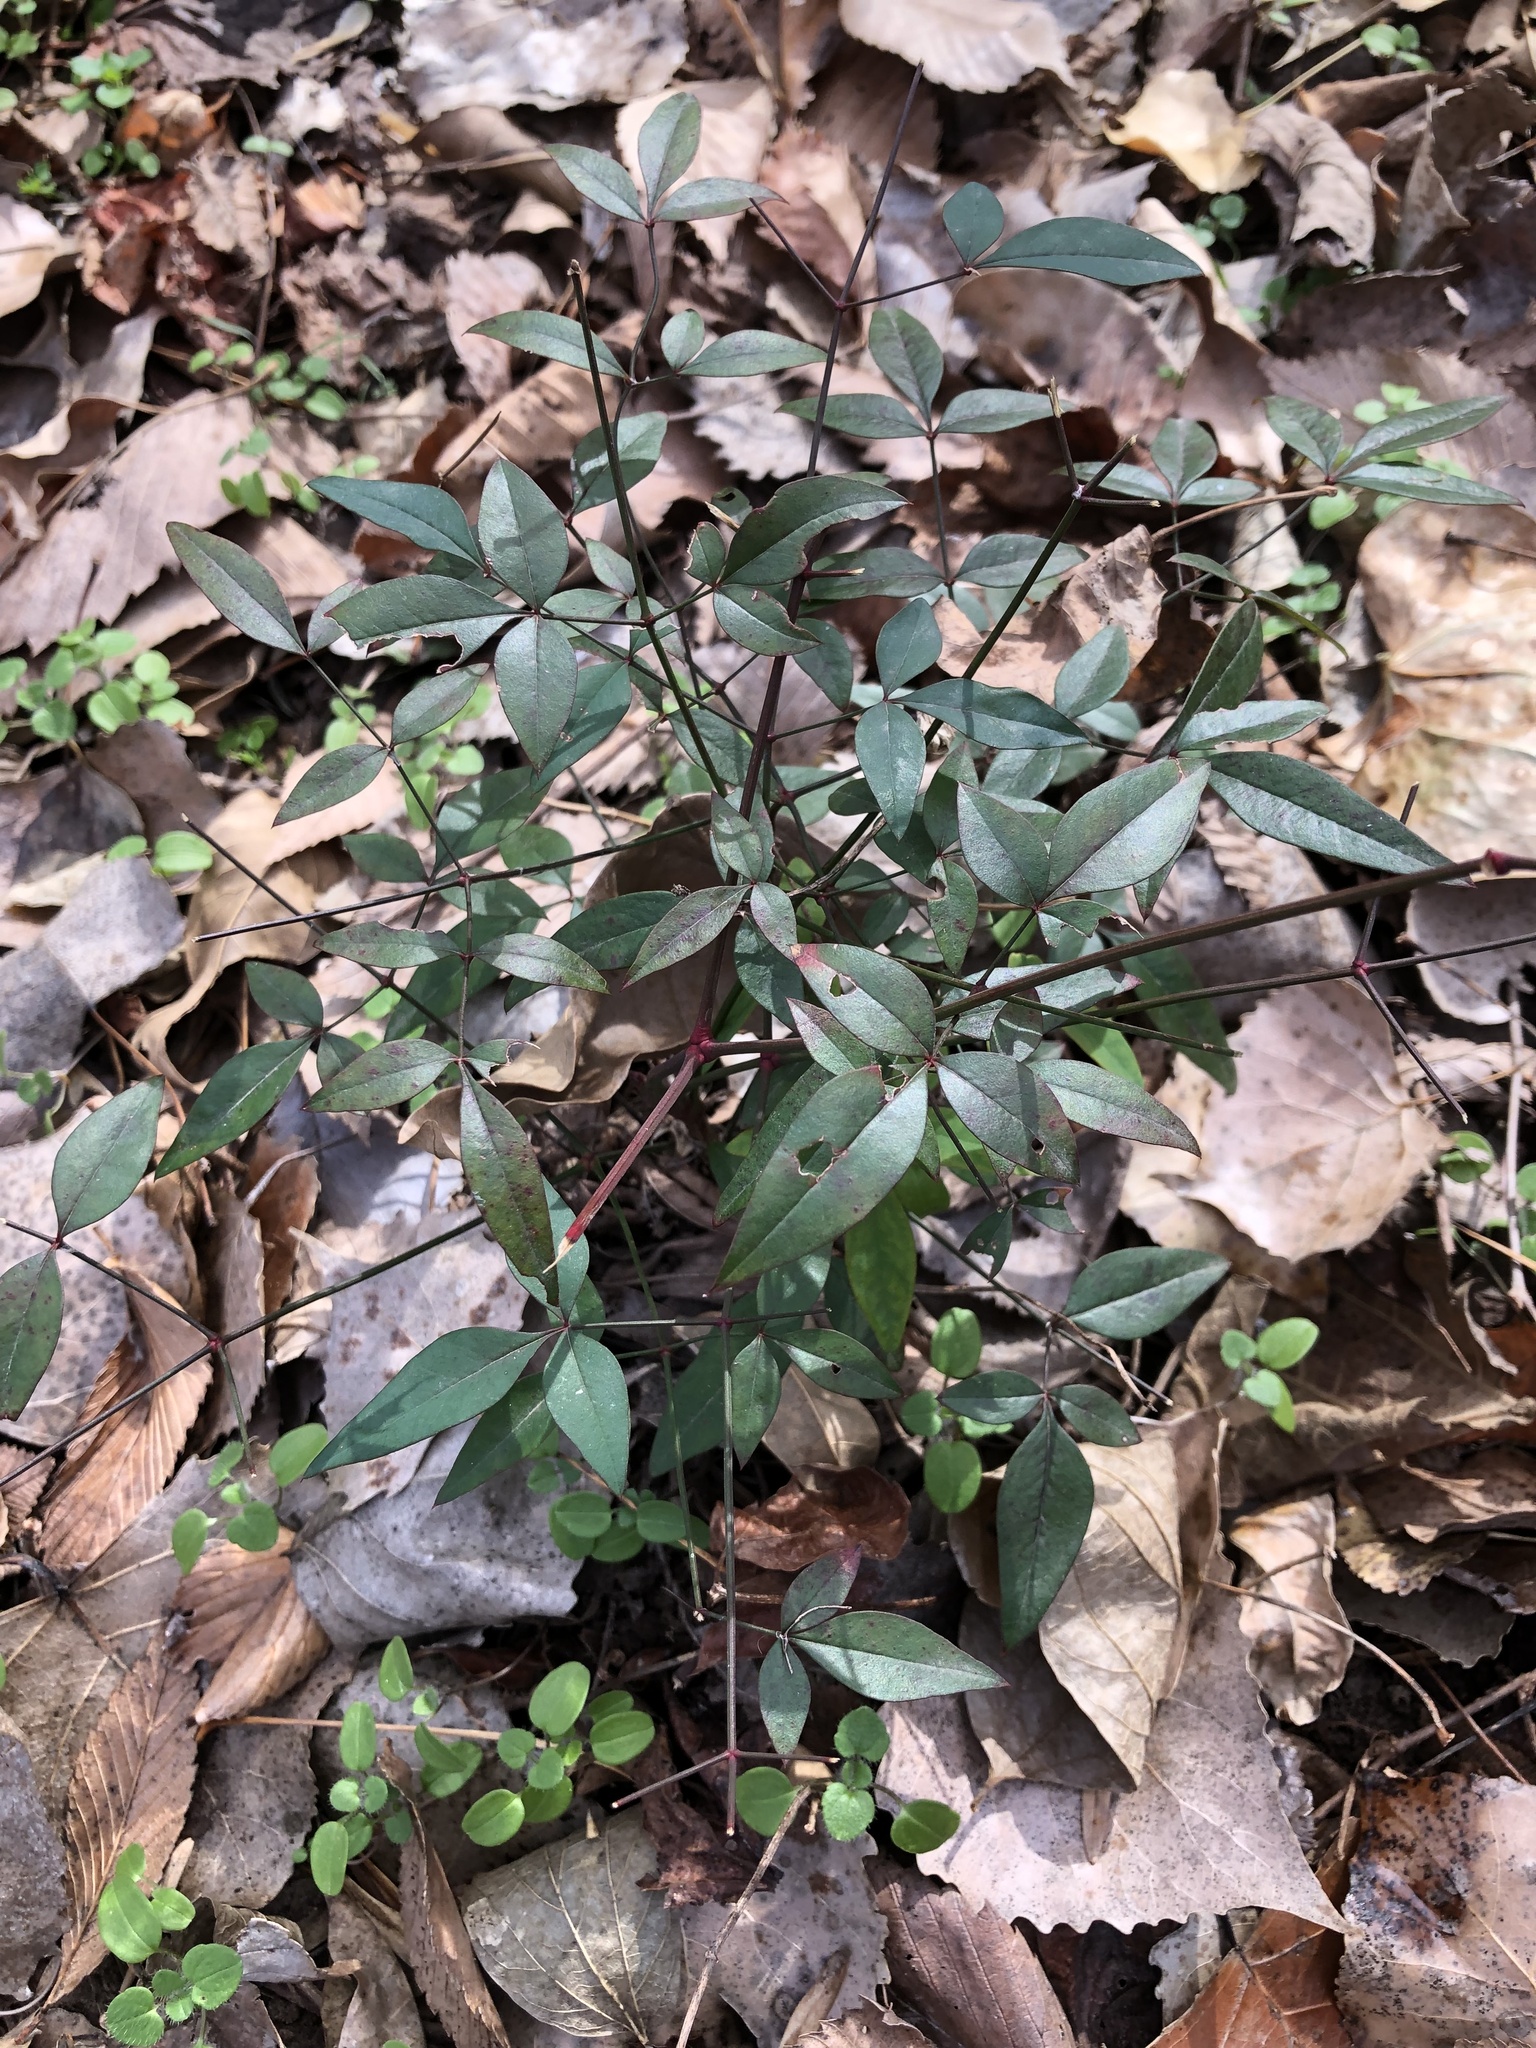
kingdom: Plantae
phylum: Tracheophyta
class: Magnoliopsida
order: Ranunculales
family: Berberidaceae
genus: Nandina
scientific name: Nandina domestica
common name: Sacred bamboo
